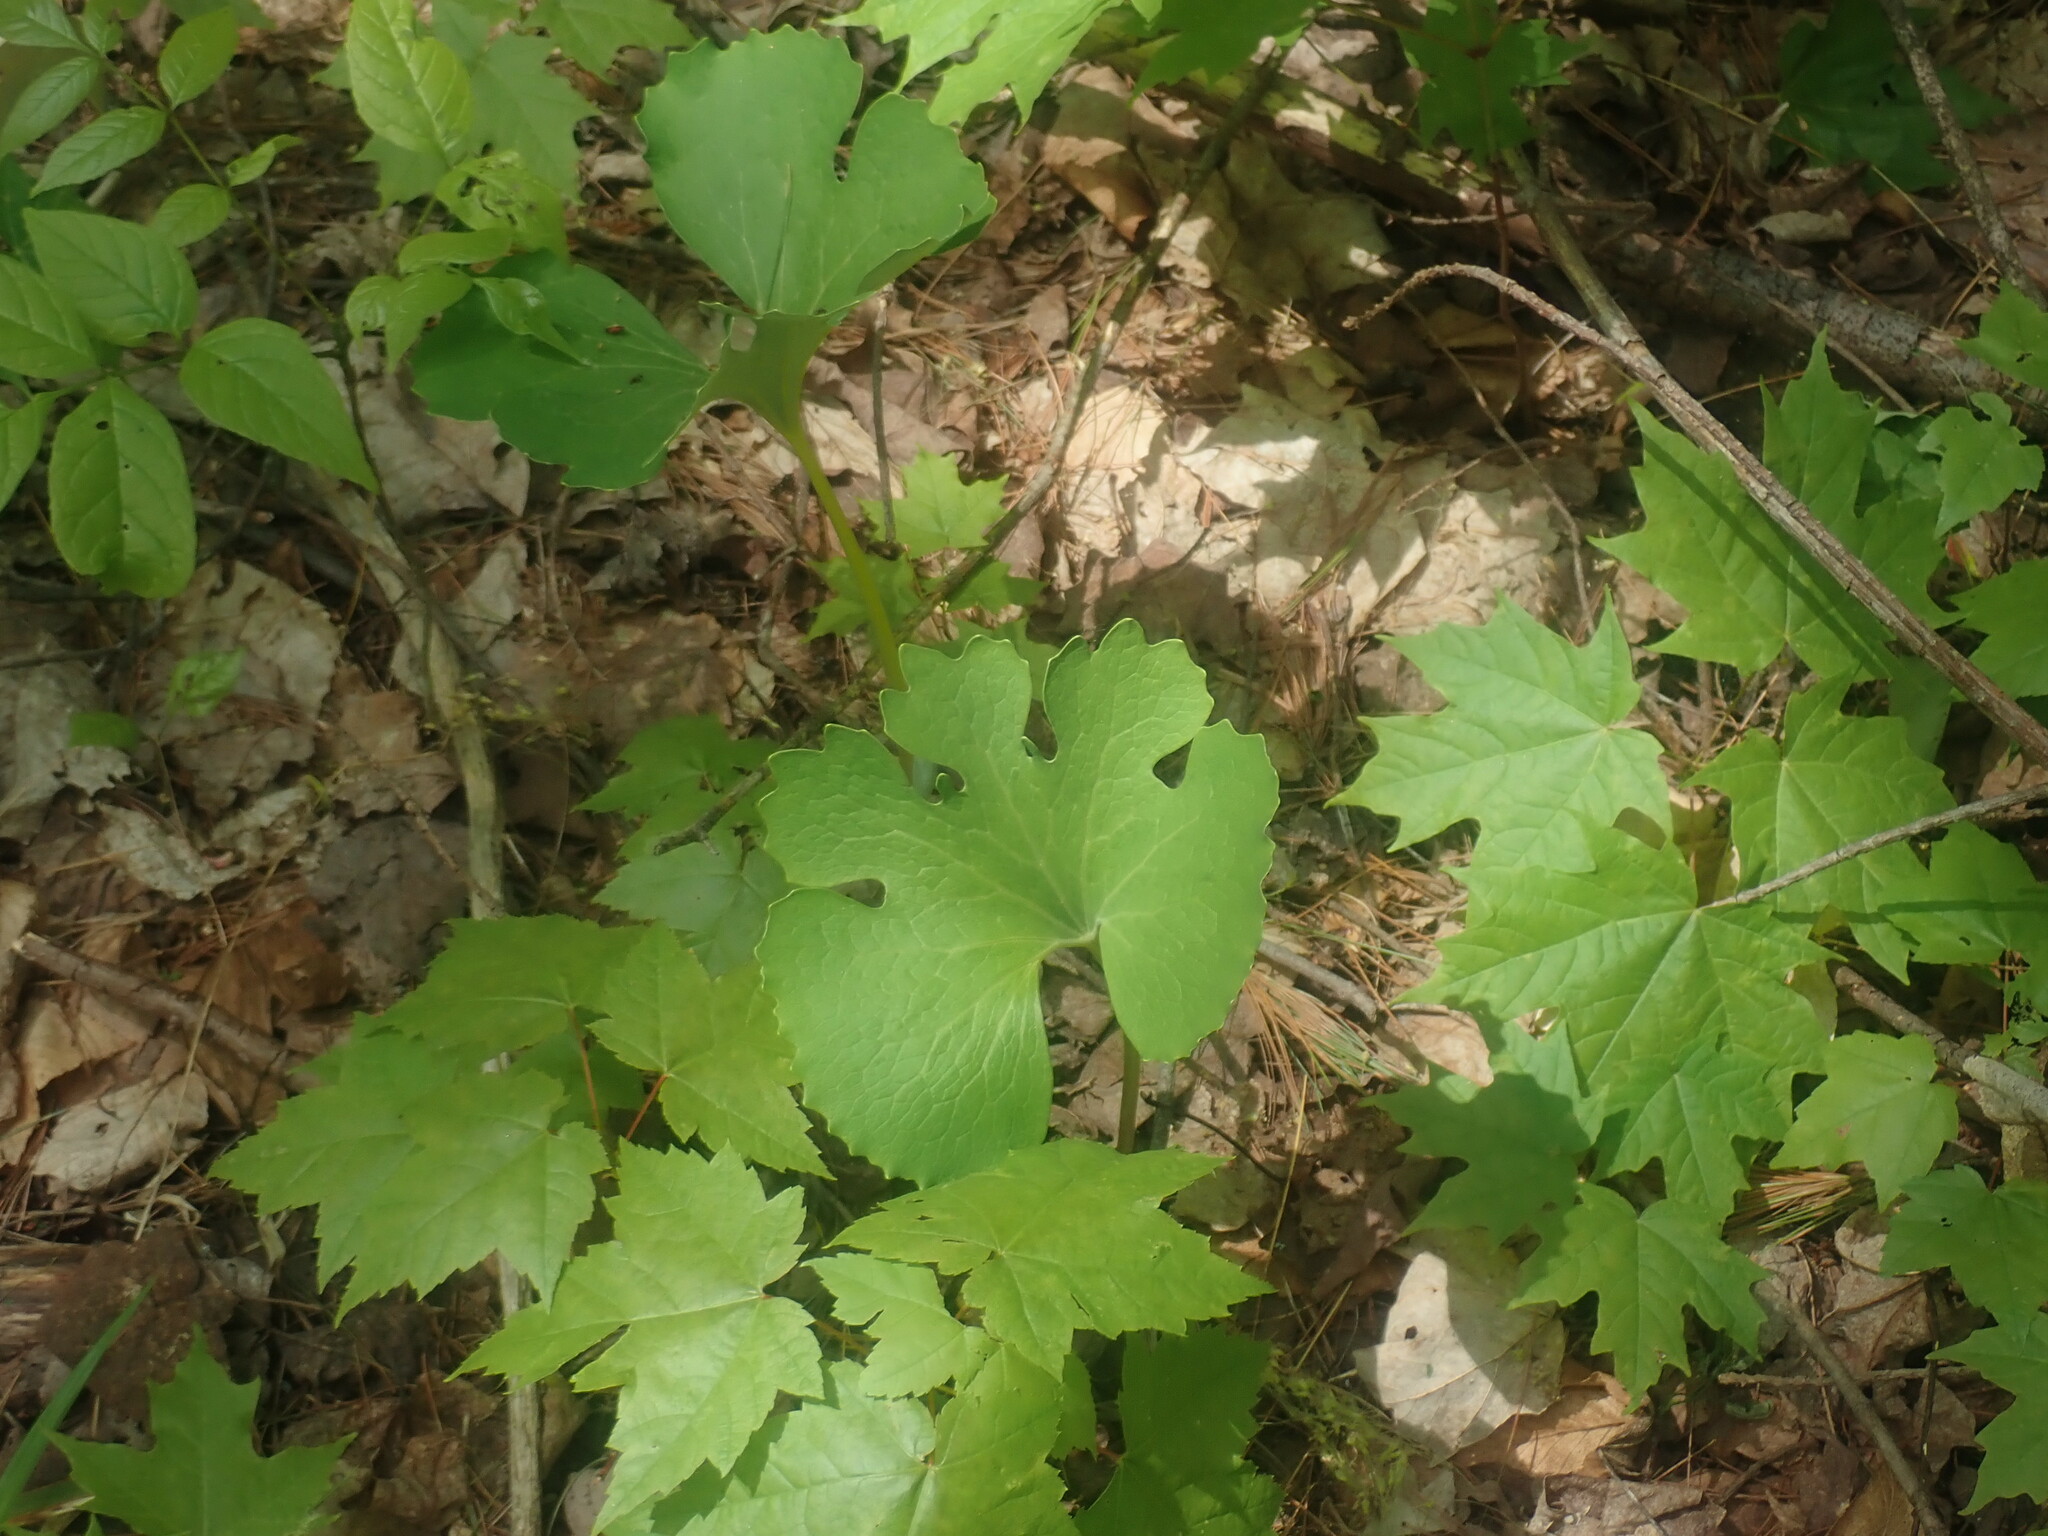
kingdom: Plantae
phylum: Tracheophyta
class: Magnoliopsida
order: Ranunculales
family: Papaveraceae
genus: Sanguinaria
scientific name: Sanguinaria canadensis
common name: Bloodroot
